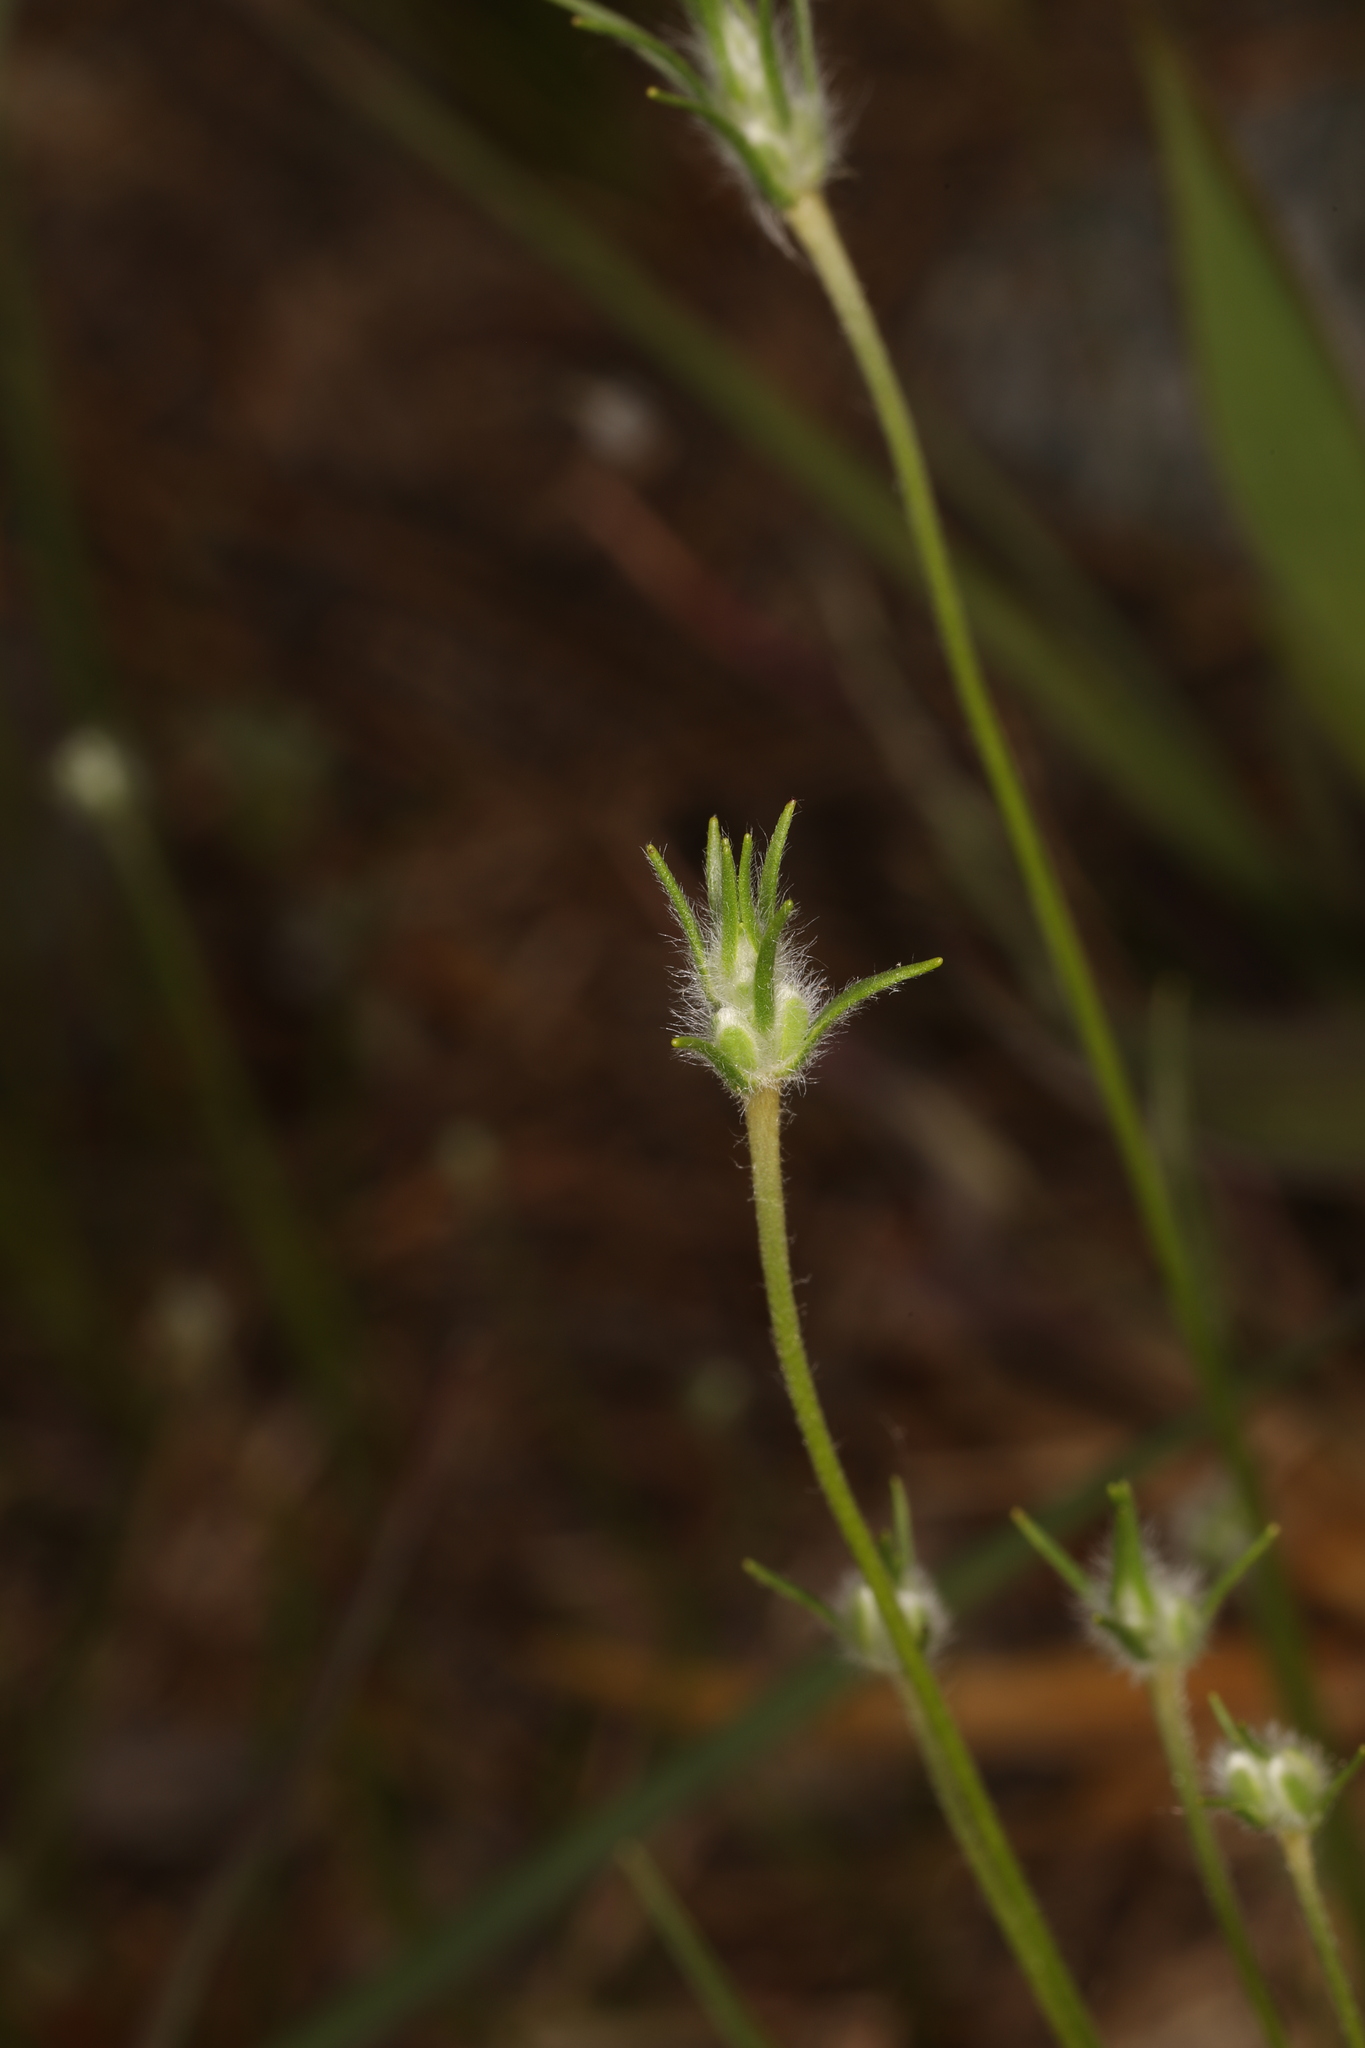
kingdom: Plantae
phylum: Tracheophyta
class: Magnoliopsida
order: Lamiales
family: Plantaginaceae
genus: Plantago
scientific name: Plantago aristata
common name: Bracted plantain
